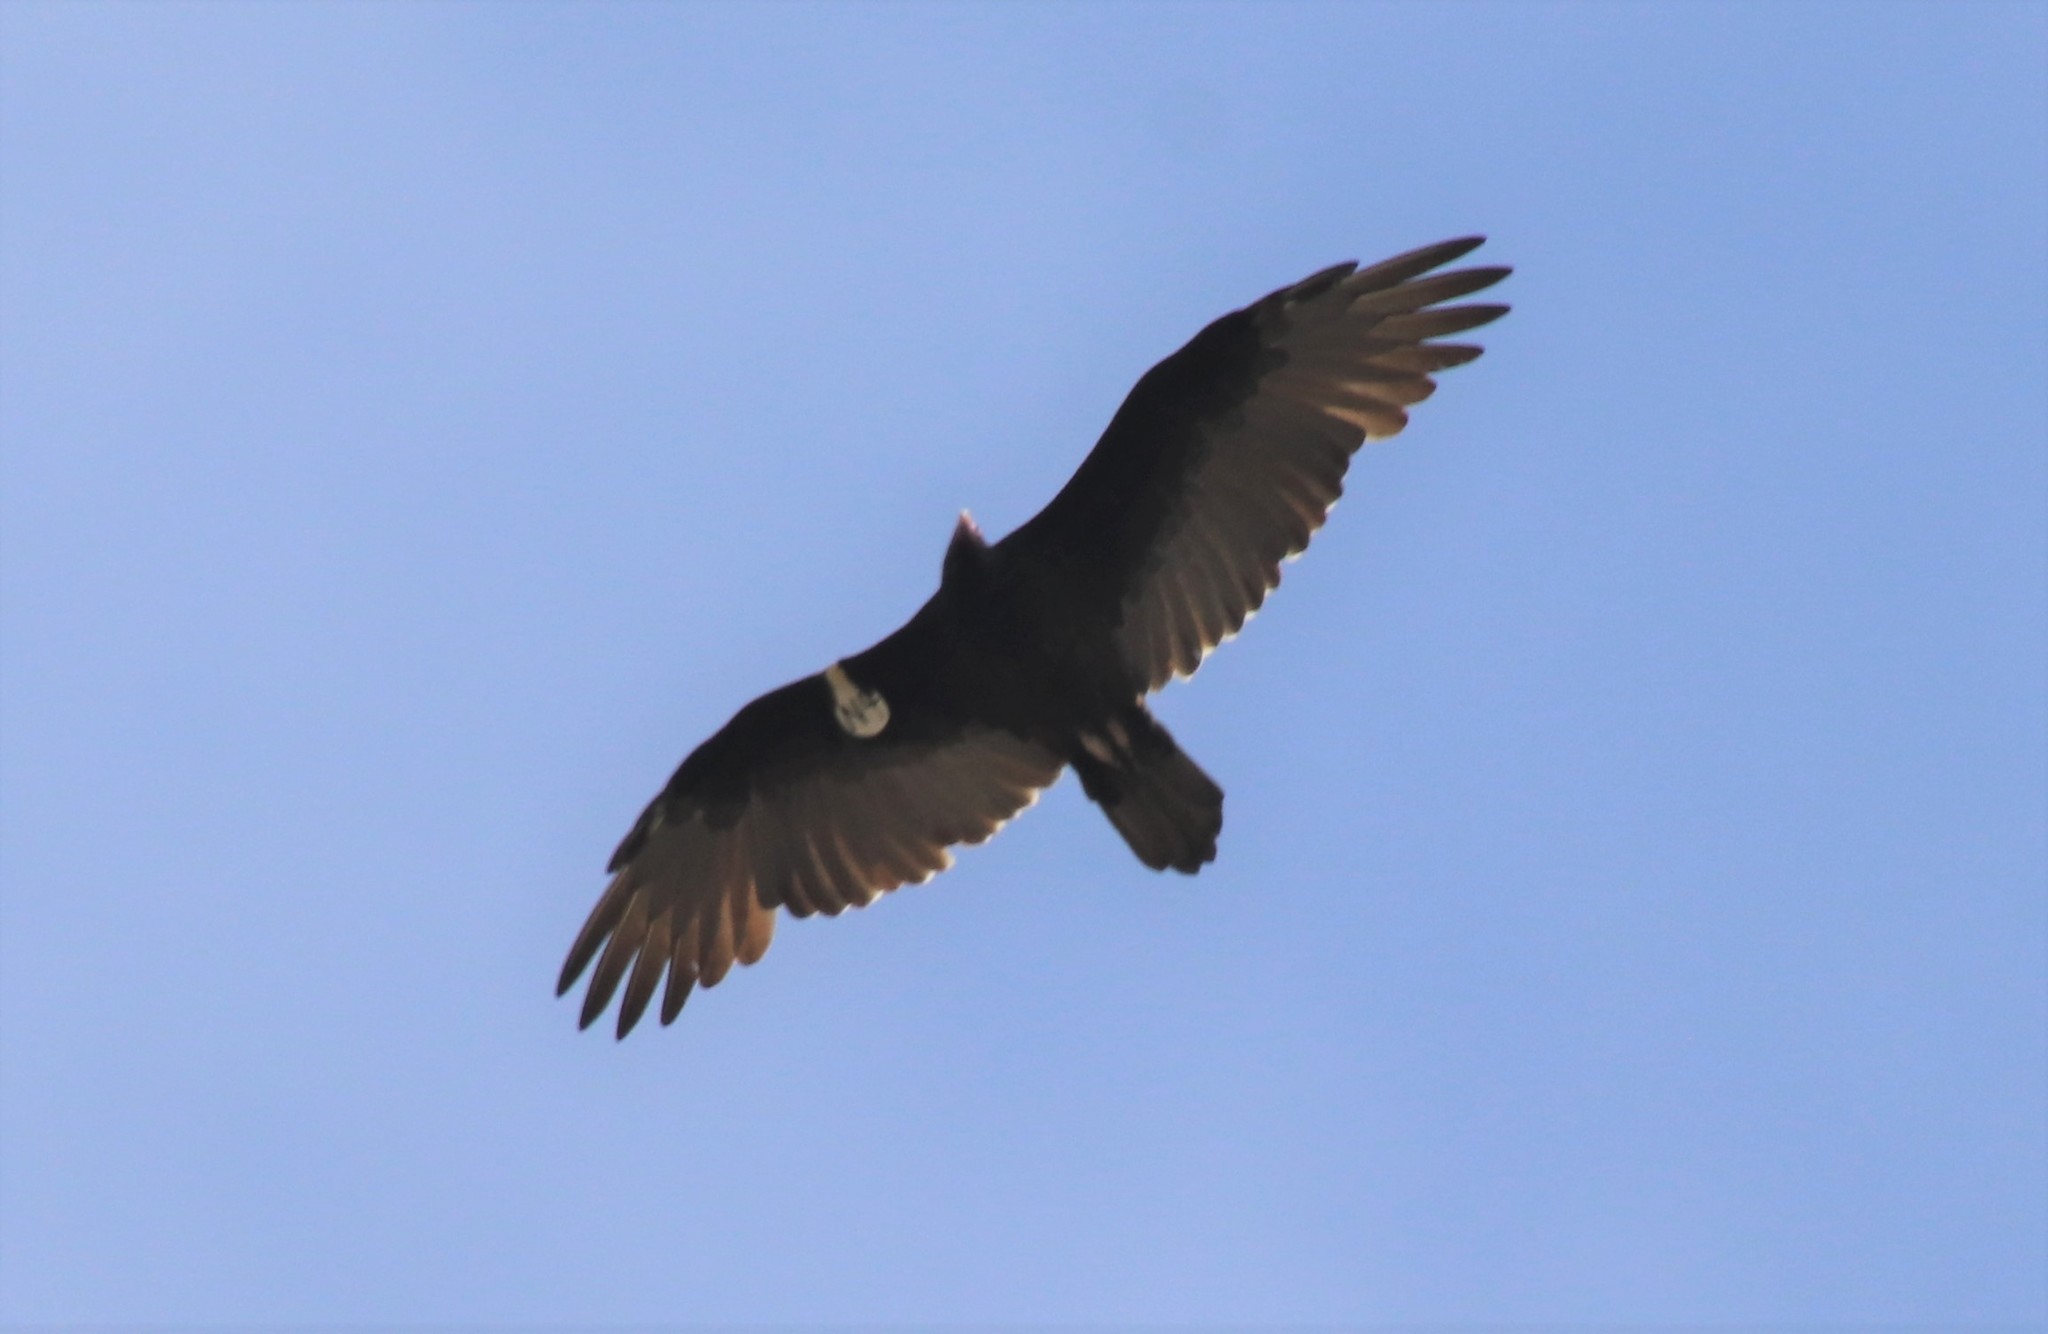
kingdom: Animalia
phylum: Chordata
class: Aves
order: Accipitriformes
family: Cathartidae
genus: Cathartes
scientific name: Cathartes aura
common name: Turkey vulture
